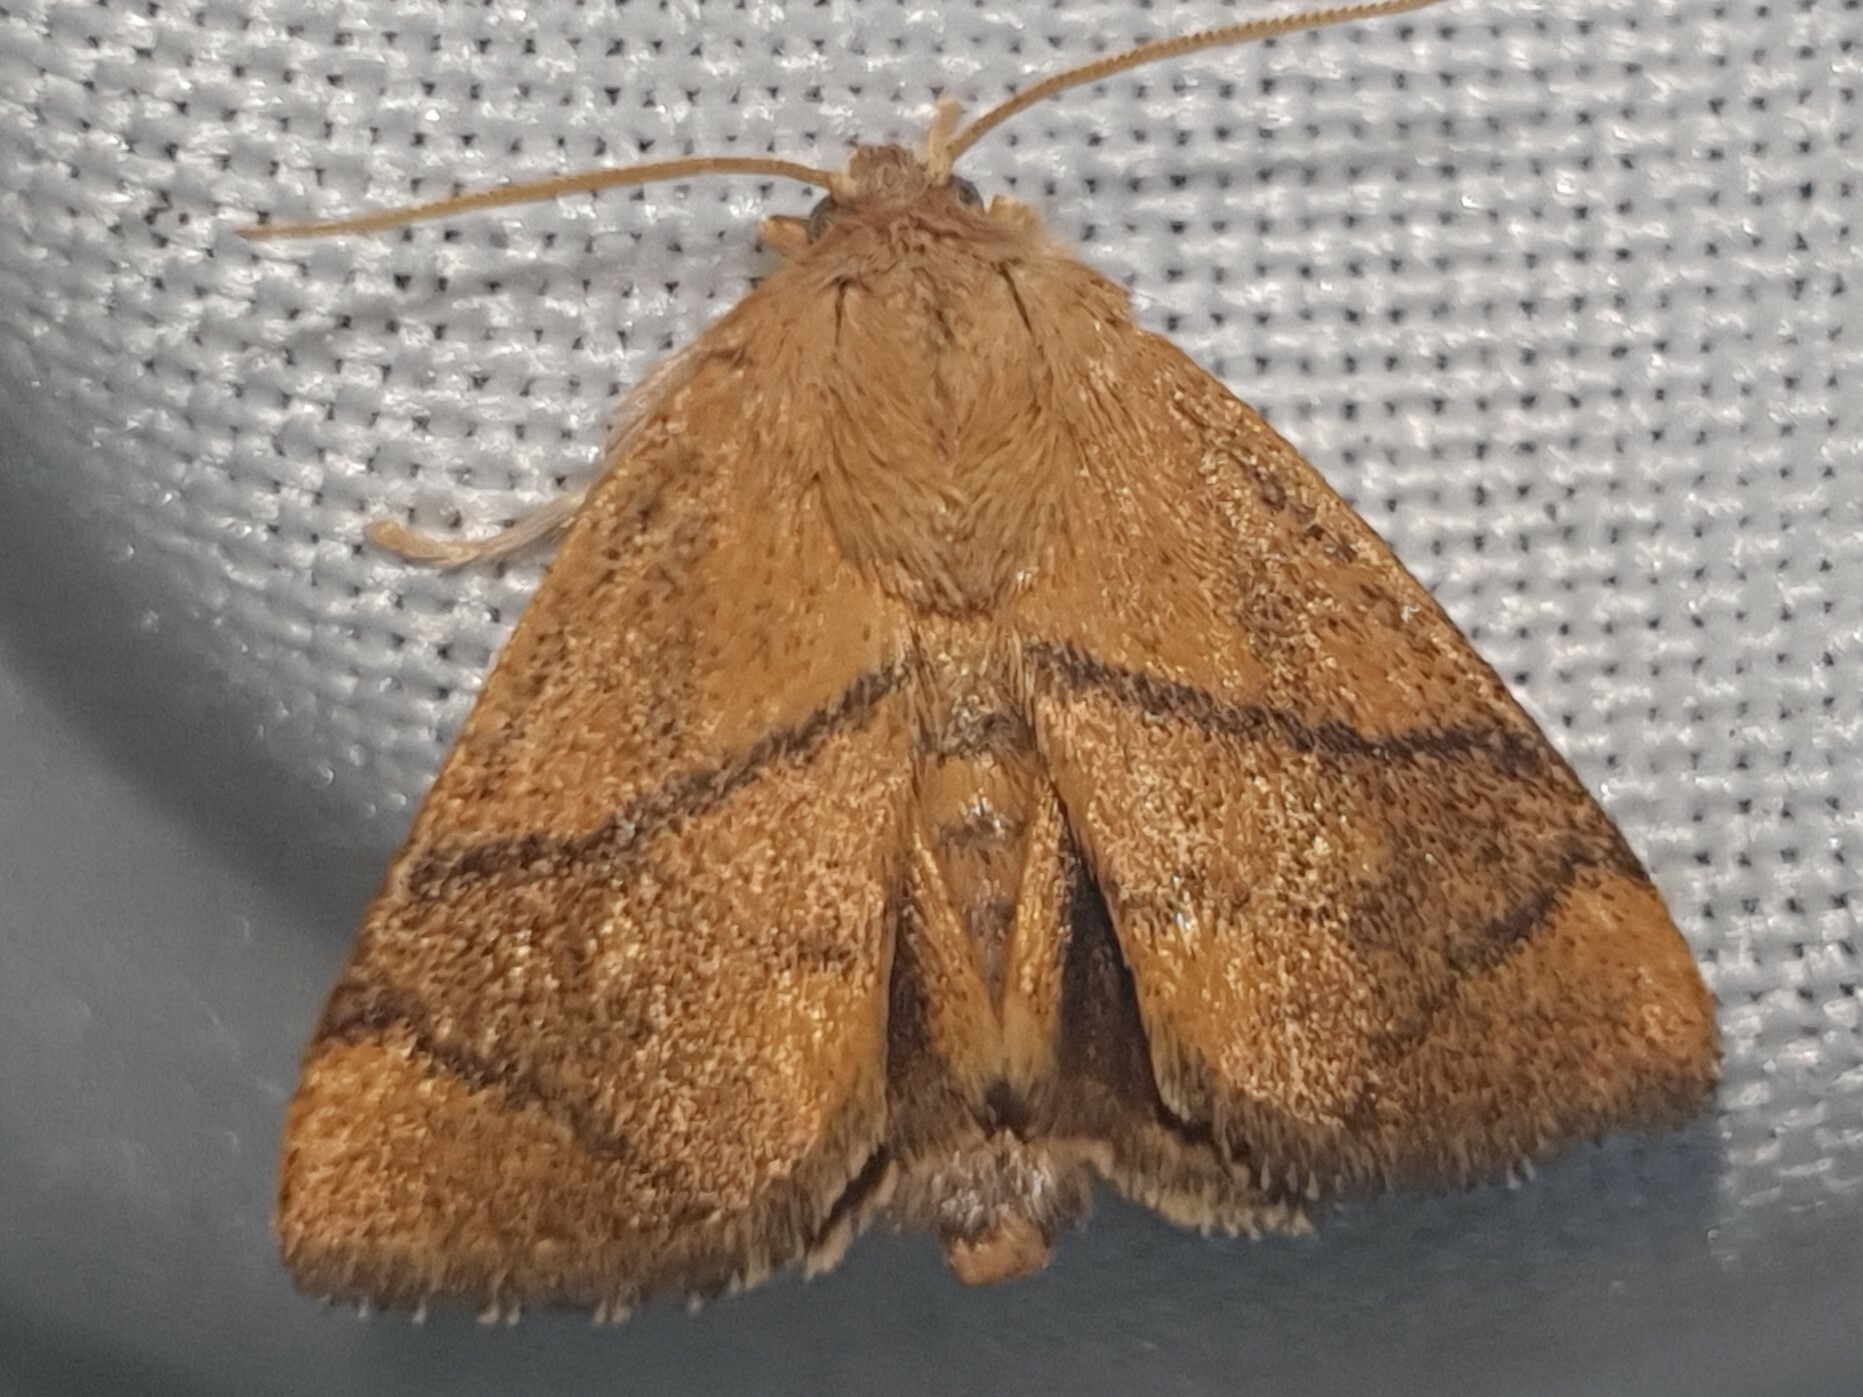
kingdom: Animalia
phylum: Arthropoda
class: Insecta
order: Lepidoptera
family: Limacodidae
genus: Apoda
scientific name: Apoda limacodes
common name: Festoon
